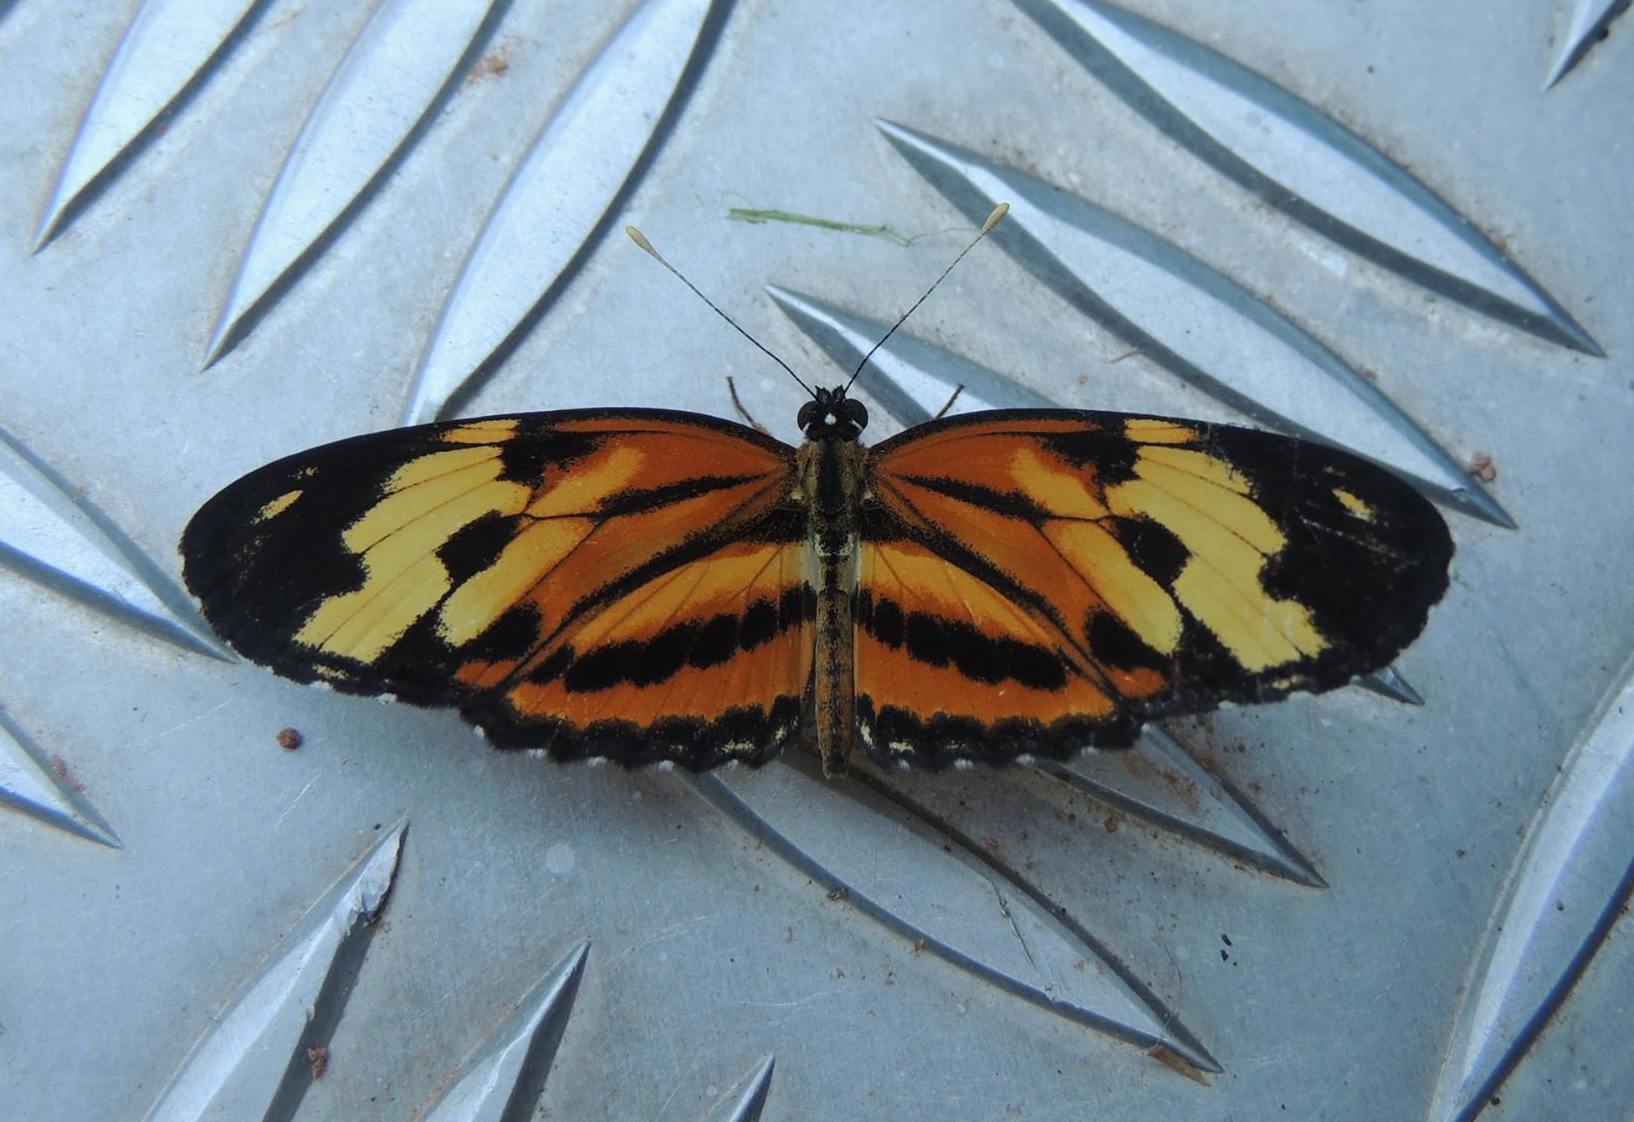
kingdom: Animalia
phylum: Arthropoda
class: Insecta
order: Lepidoptera
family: Nymphalidae
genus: Eresia
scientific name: Eresia eunice
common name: Tiger crescent
